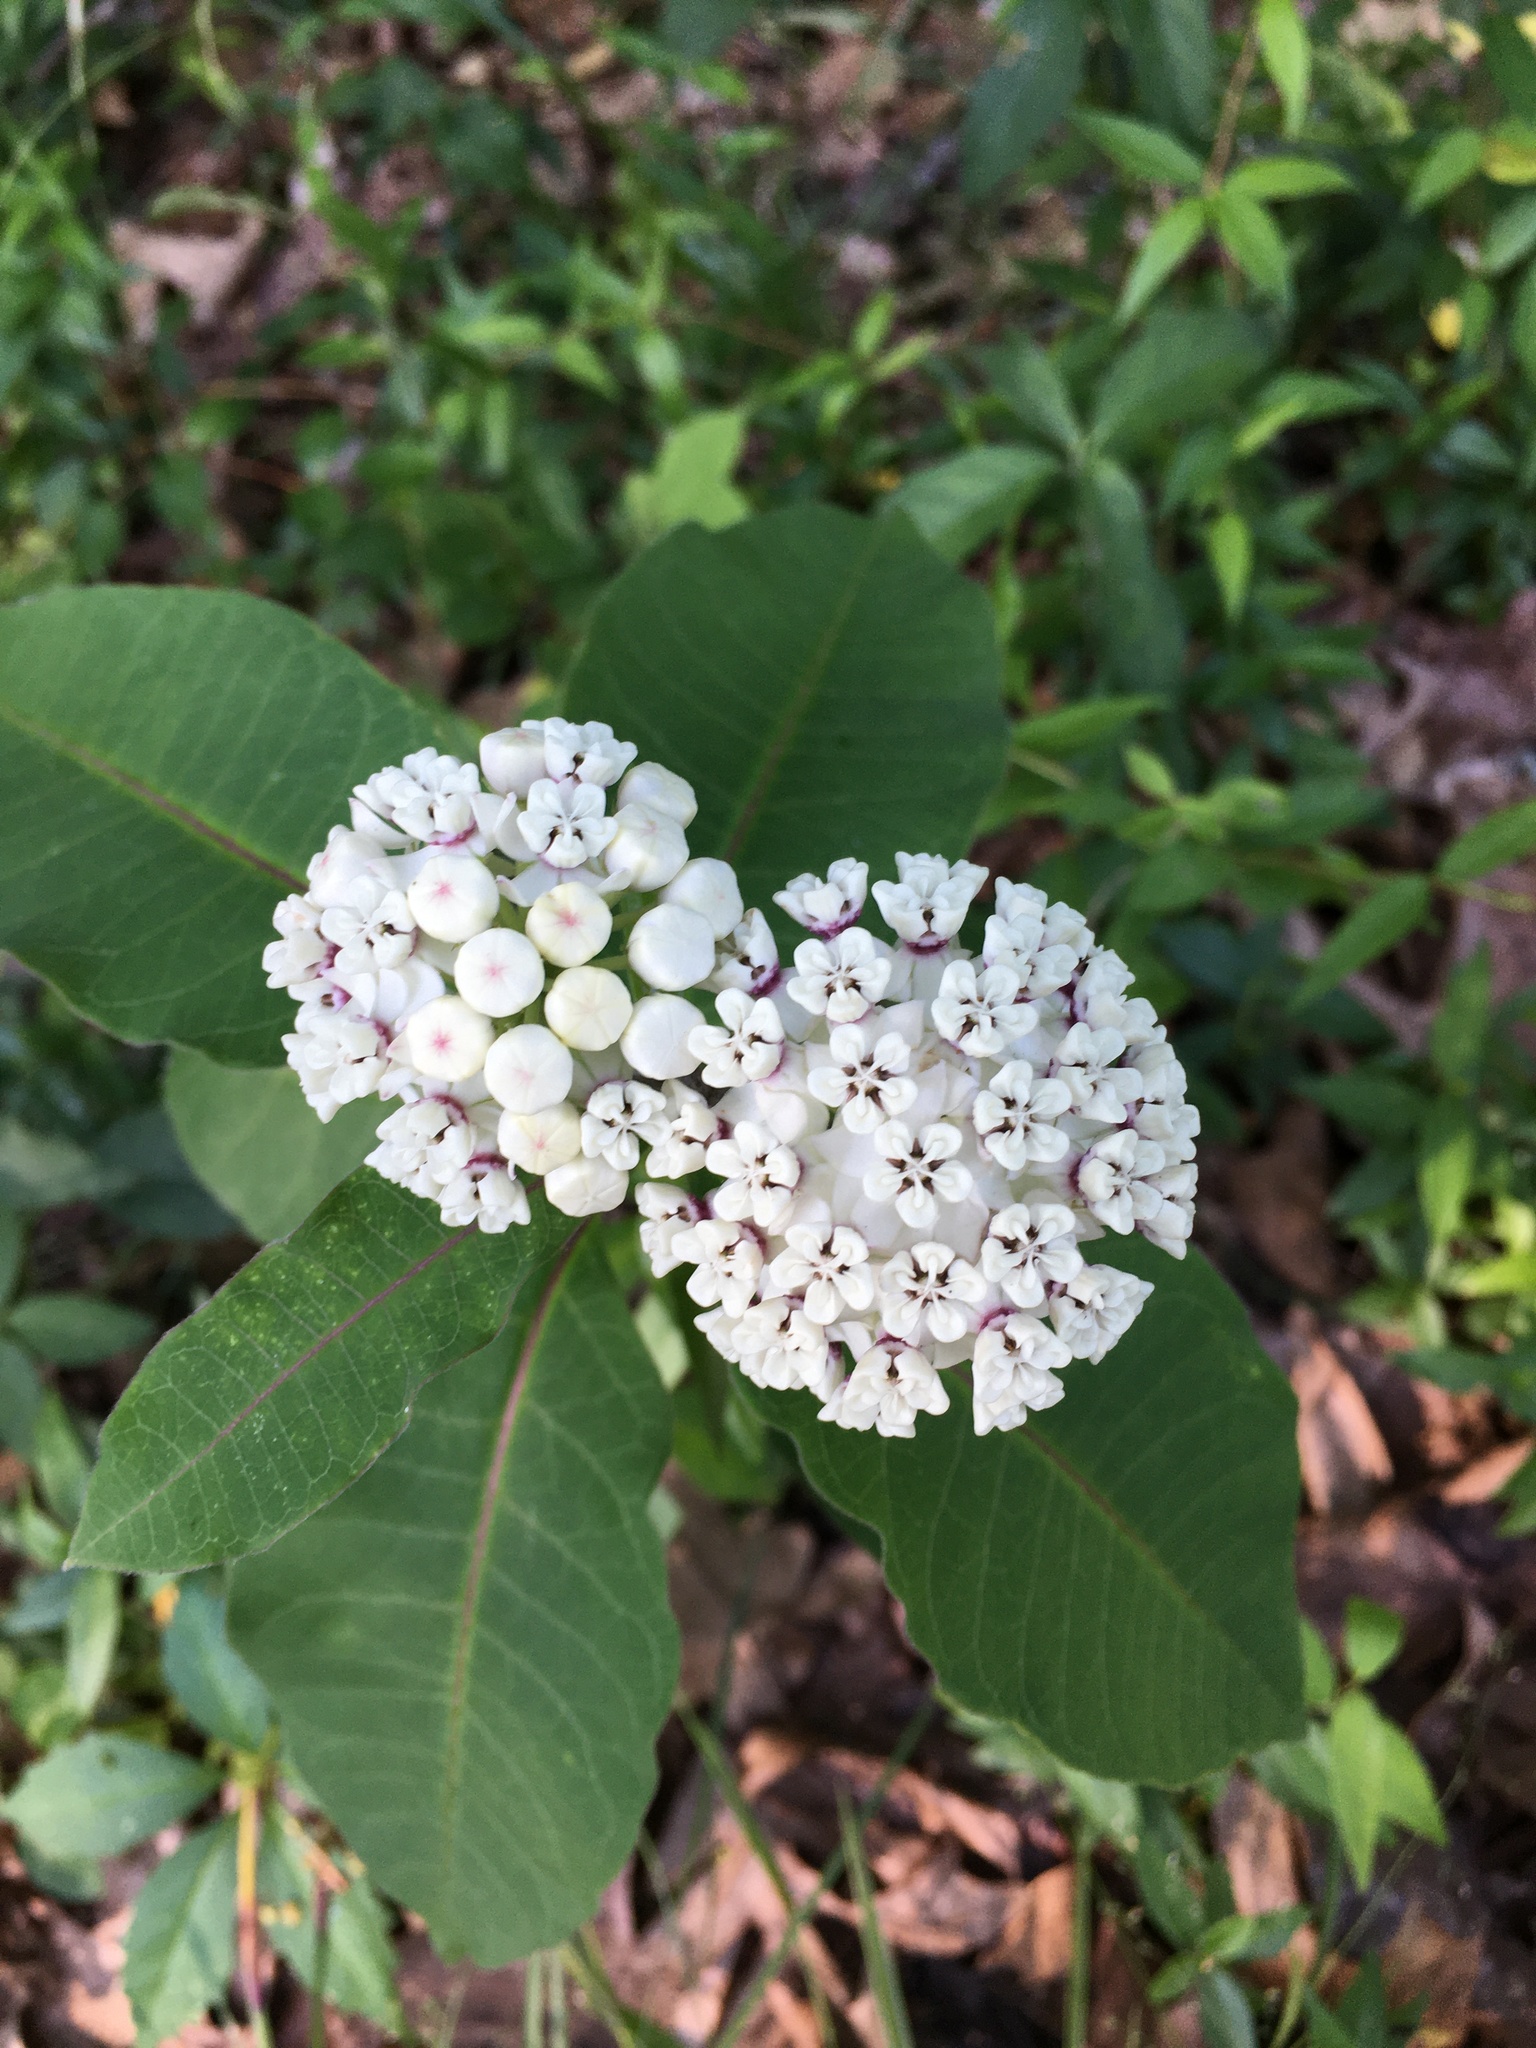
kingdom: Plantae
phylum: Tracheophyta
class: Magnoliopsida
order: Gentianales
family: Apocynaceae
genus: Asclepias
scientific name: Asclepias variegata
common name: Variegated milkweed
